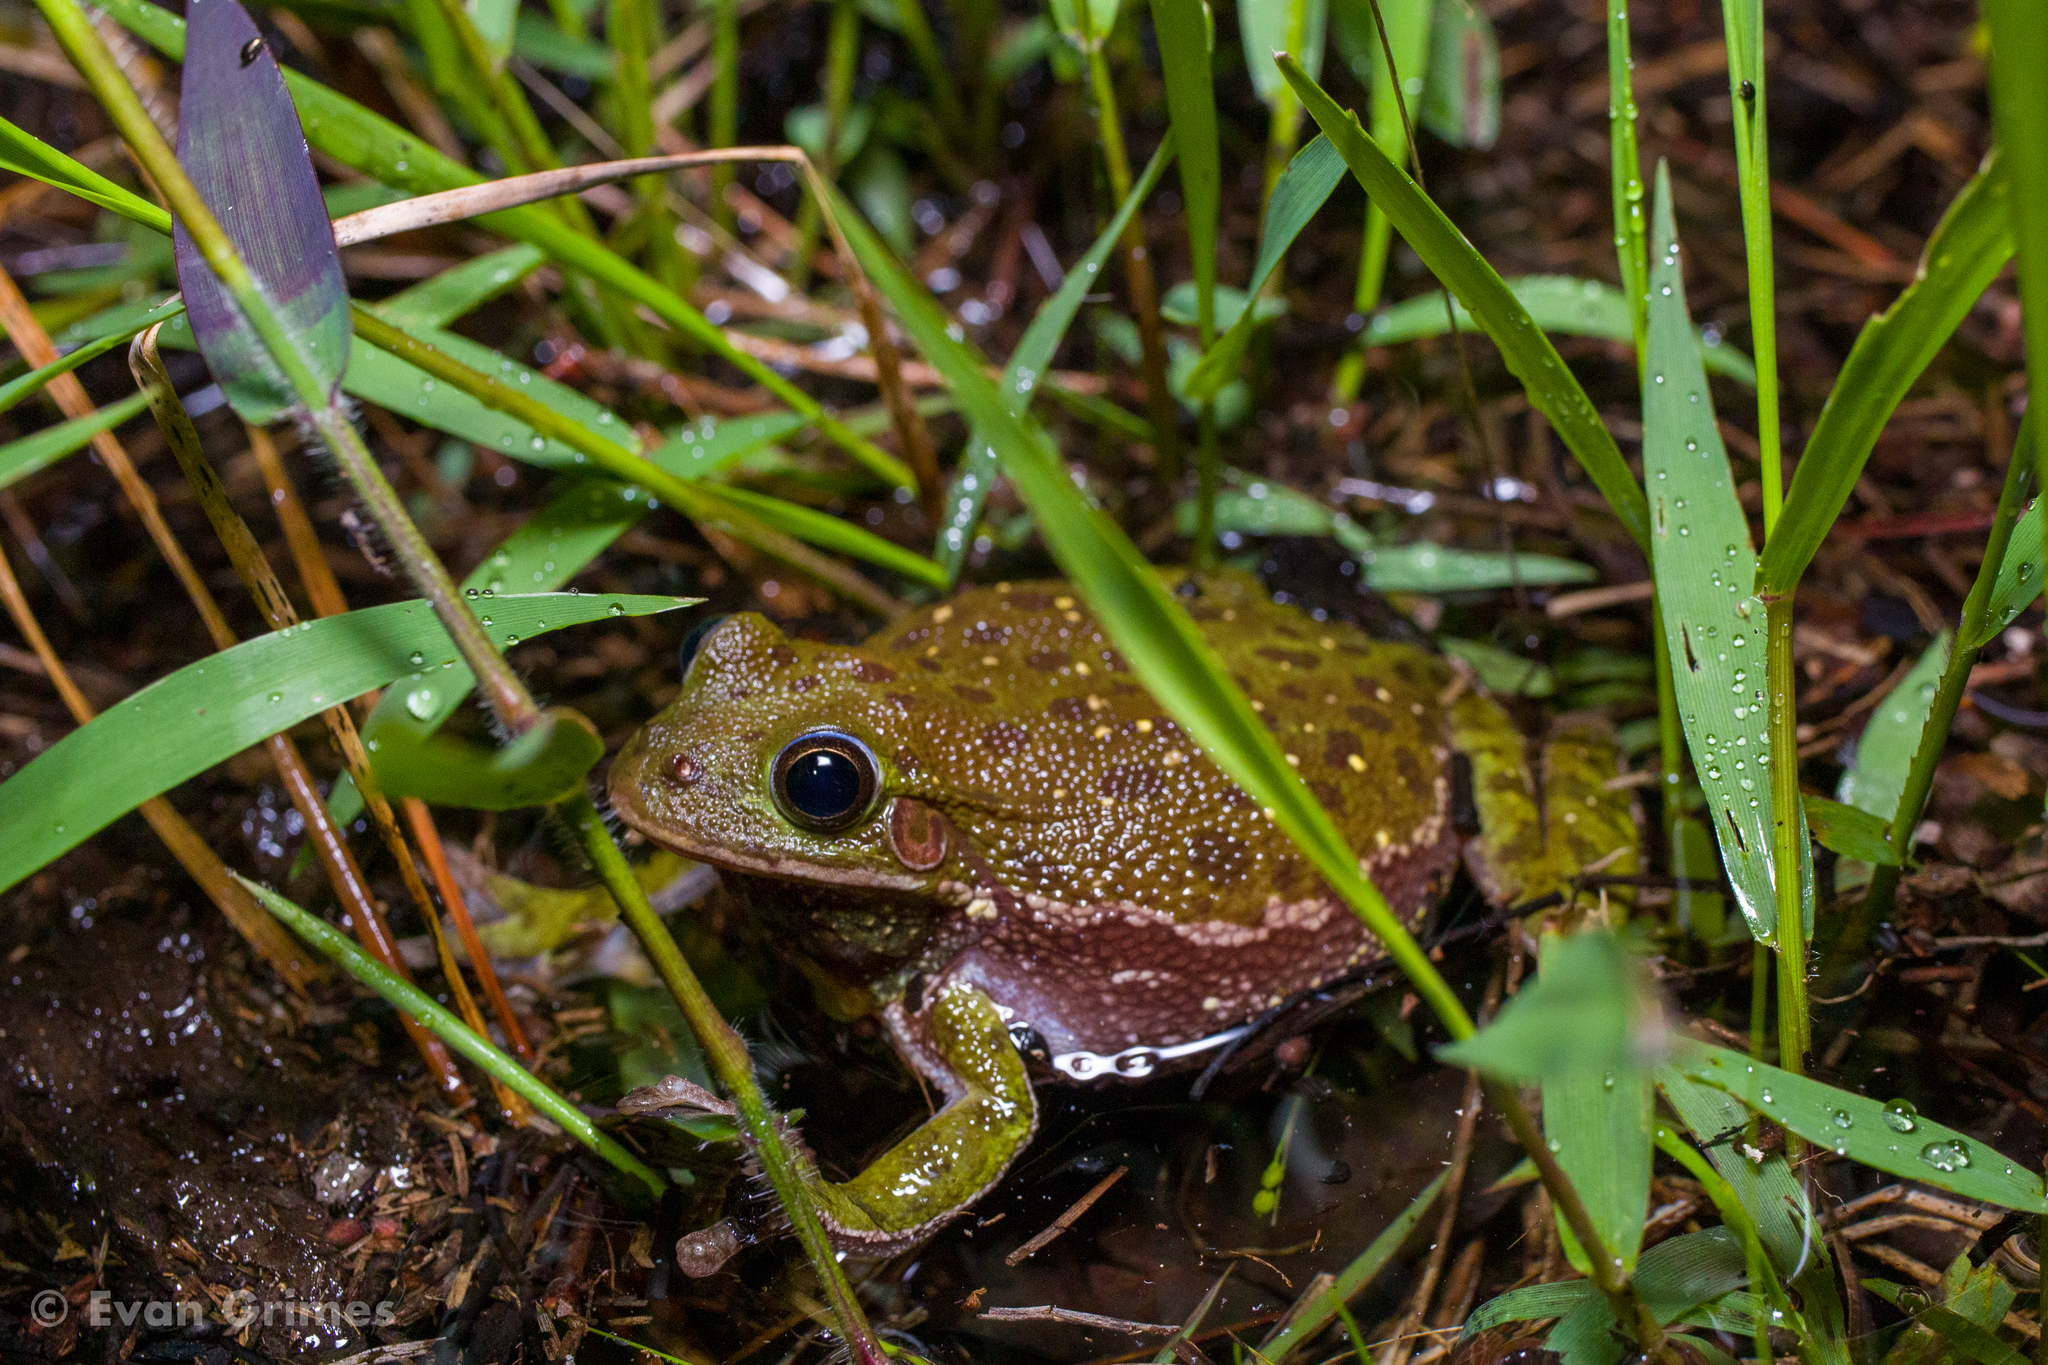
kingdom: Animalia
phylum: Chordata
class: Amphibia
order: Anura
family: Hylidae
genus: Dryophytes
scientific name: Dryophytes gratiosus
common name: Barking treefrog
